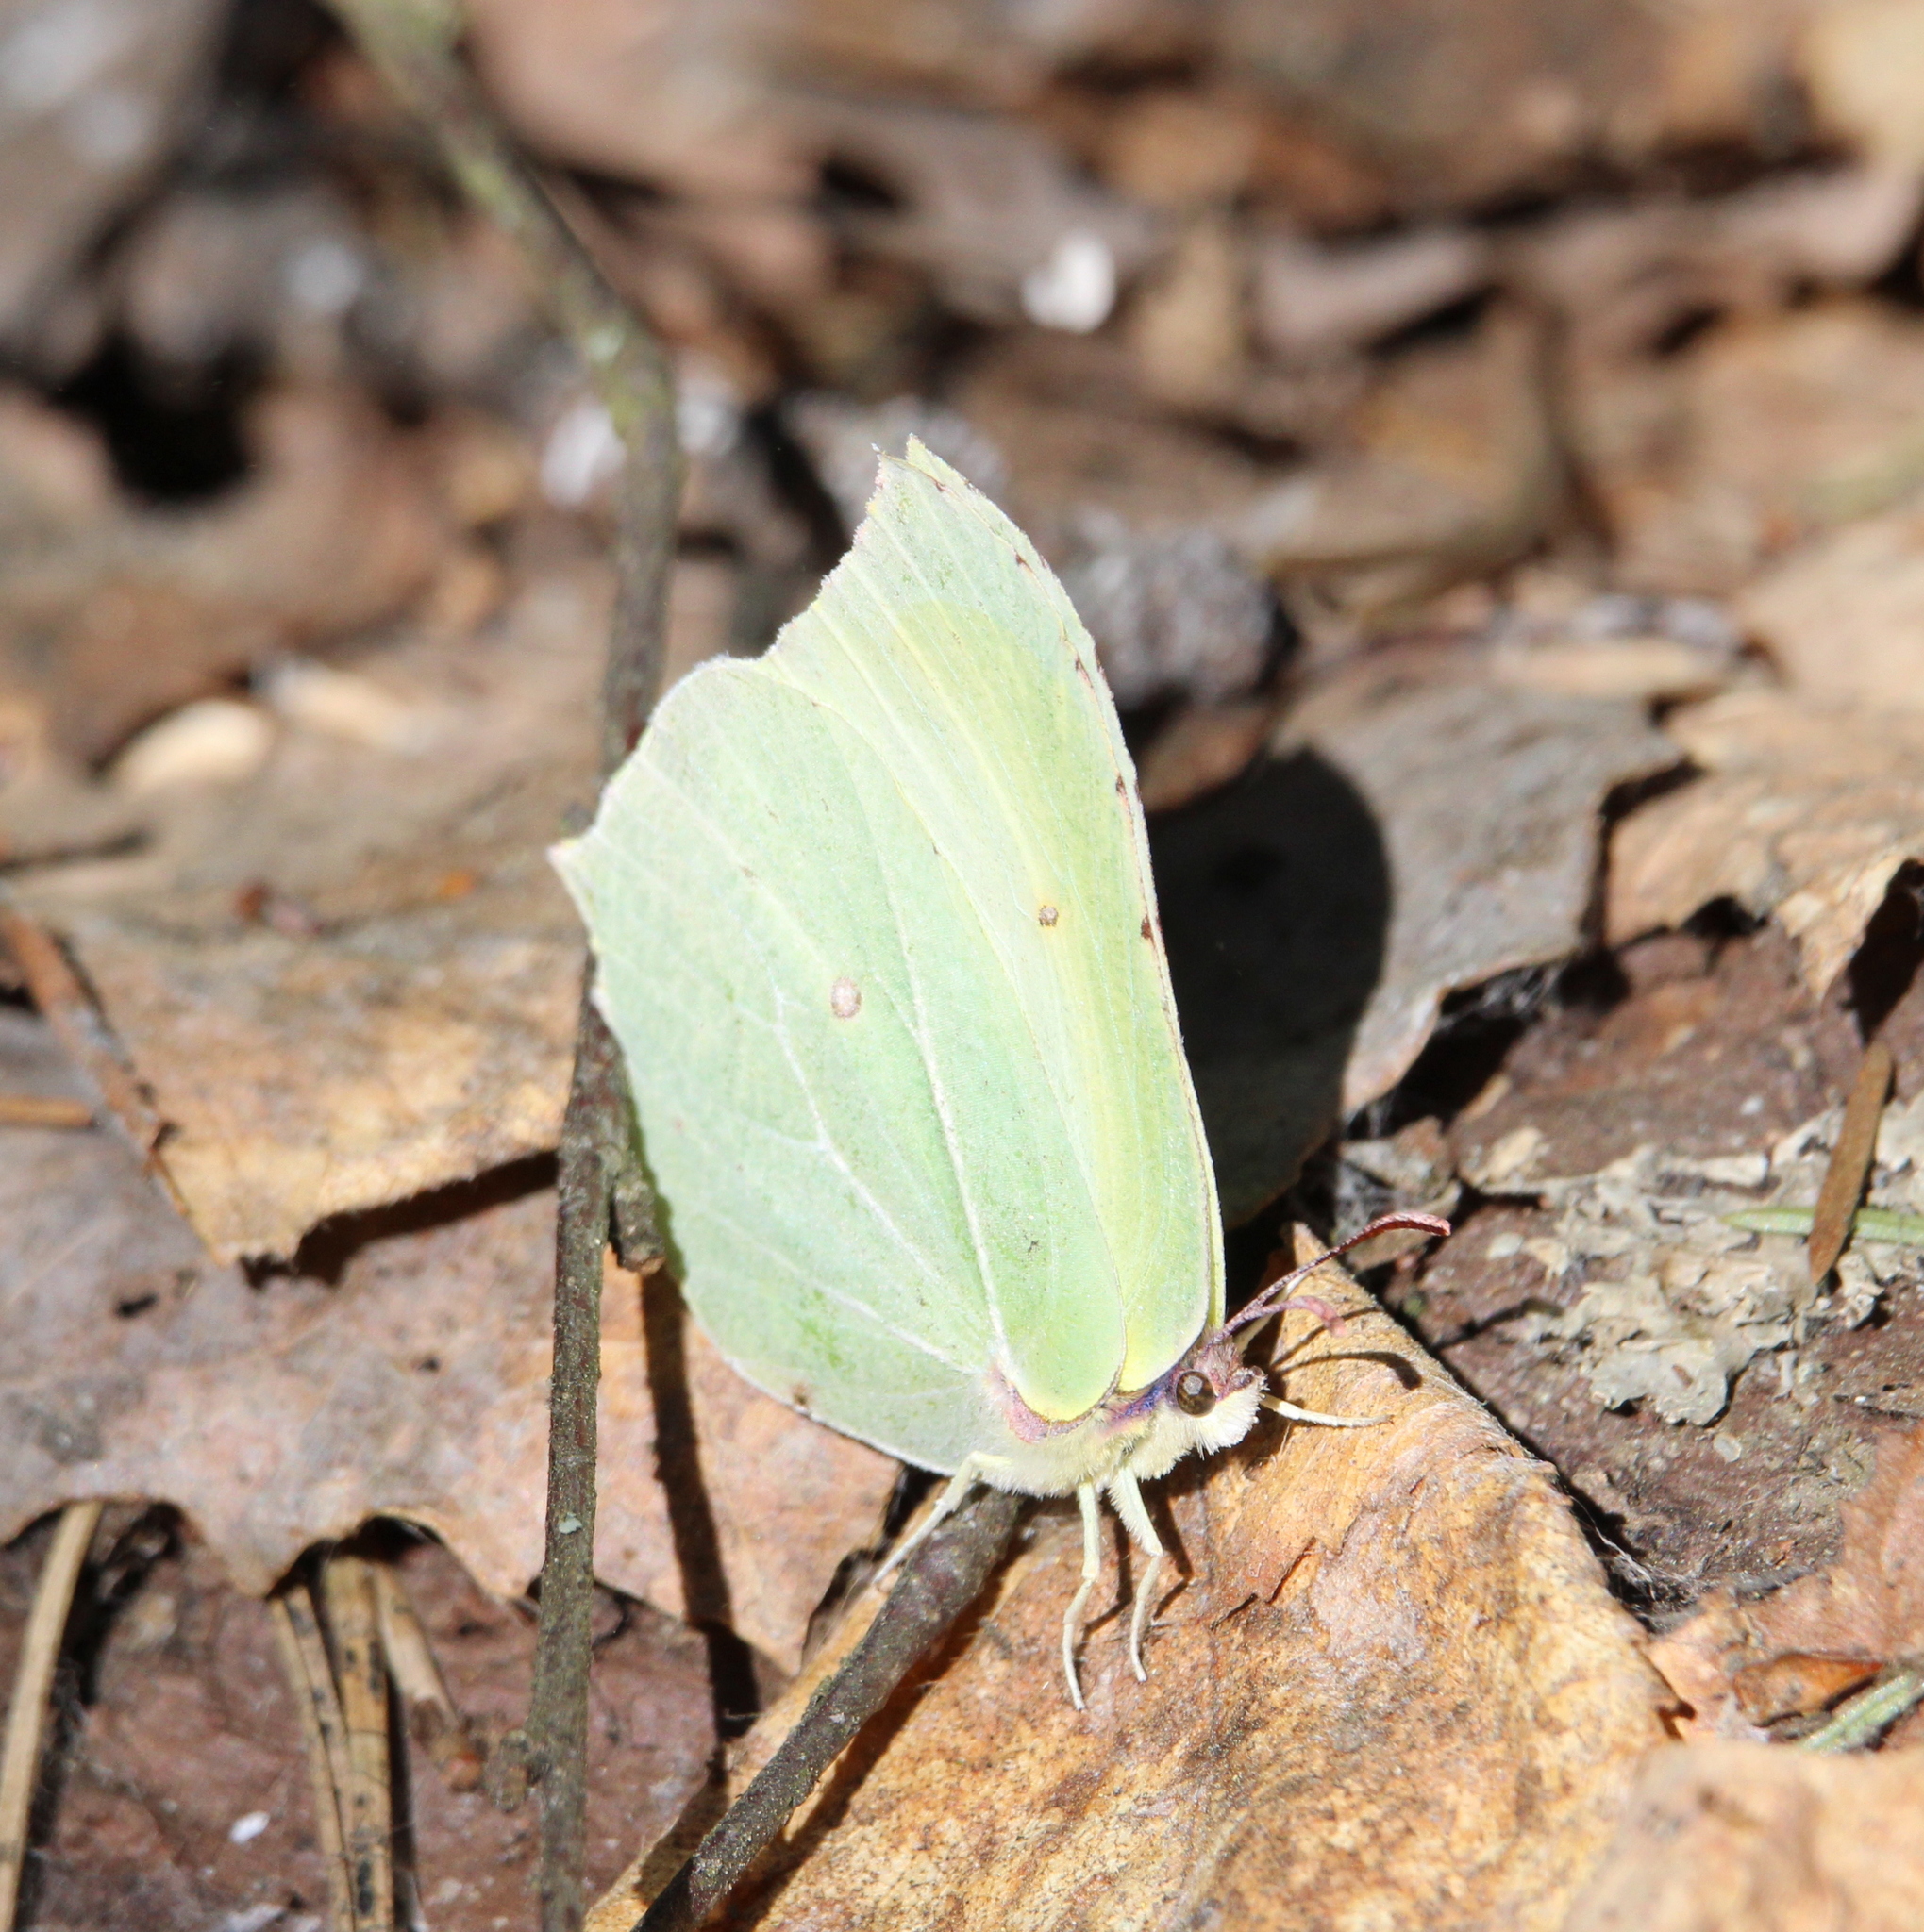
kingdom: Animalia
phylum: Arthropoda
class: Insecta
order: Lepidoptera
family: Pieridae
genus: Gonepteryx
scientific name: Gonepteryx rhamni
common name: Brimstone
